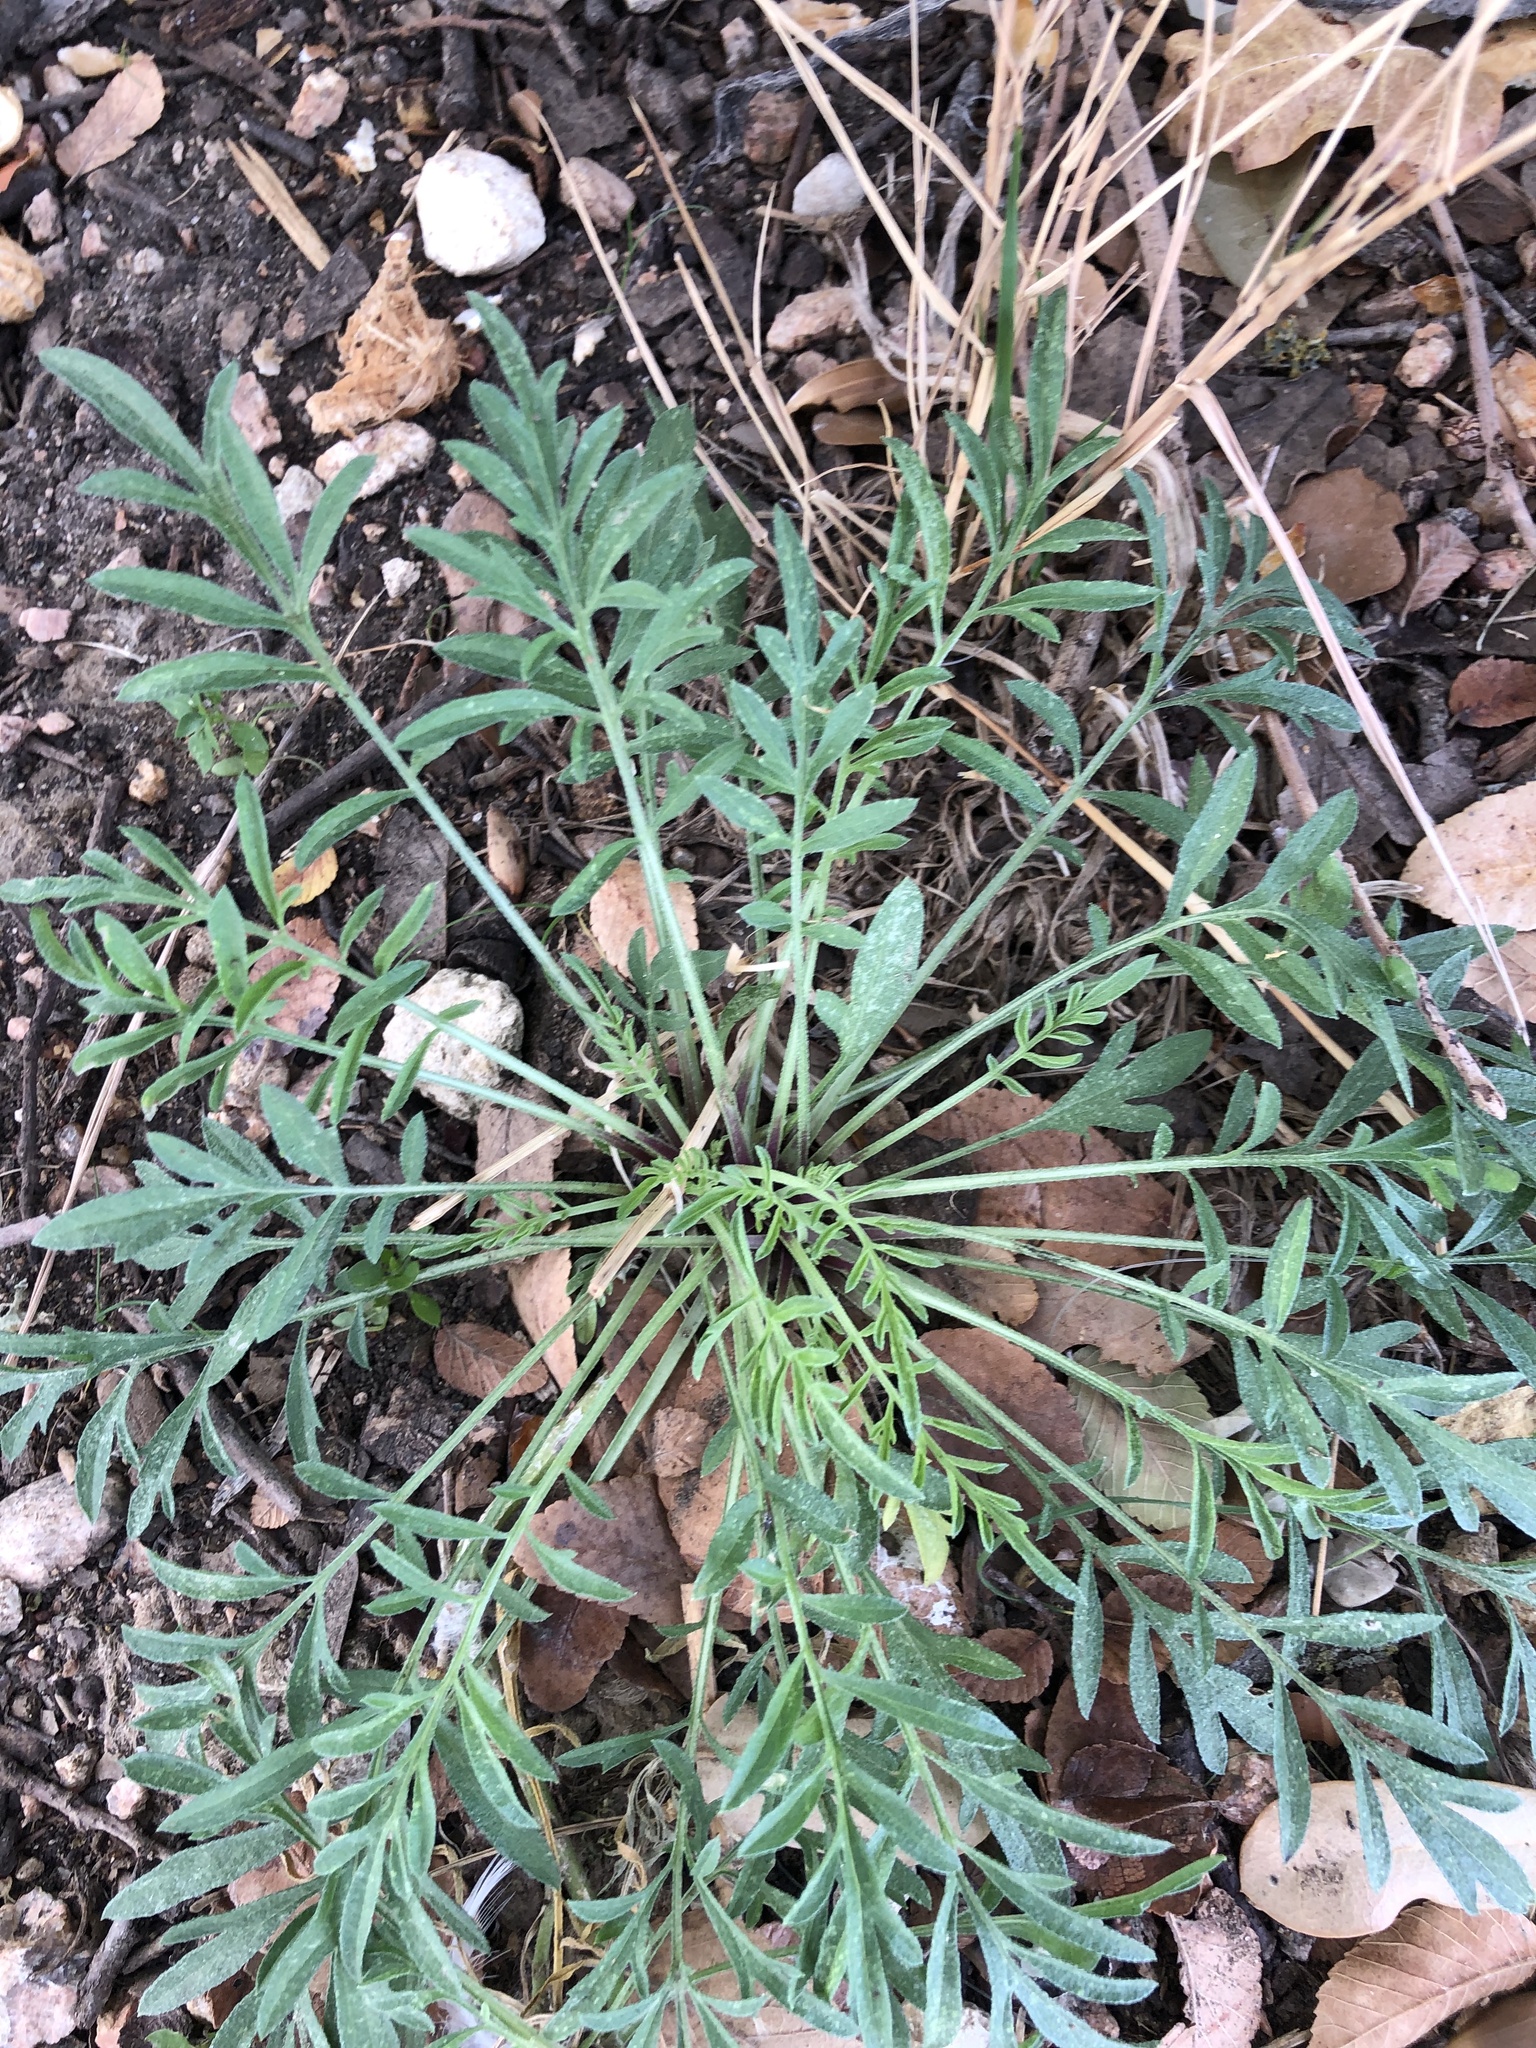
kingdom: Plantae
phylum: Tracheophyta
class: Magnoliopsida
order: Asterales
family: Asteraceae
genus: Ratibida
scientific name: Ratibida columnifera
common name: Prairie coneflower
